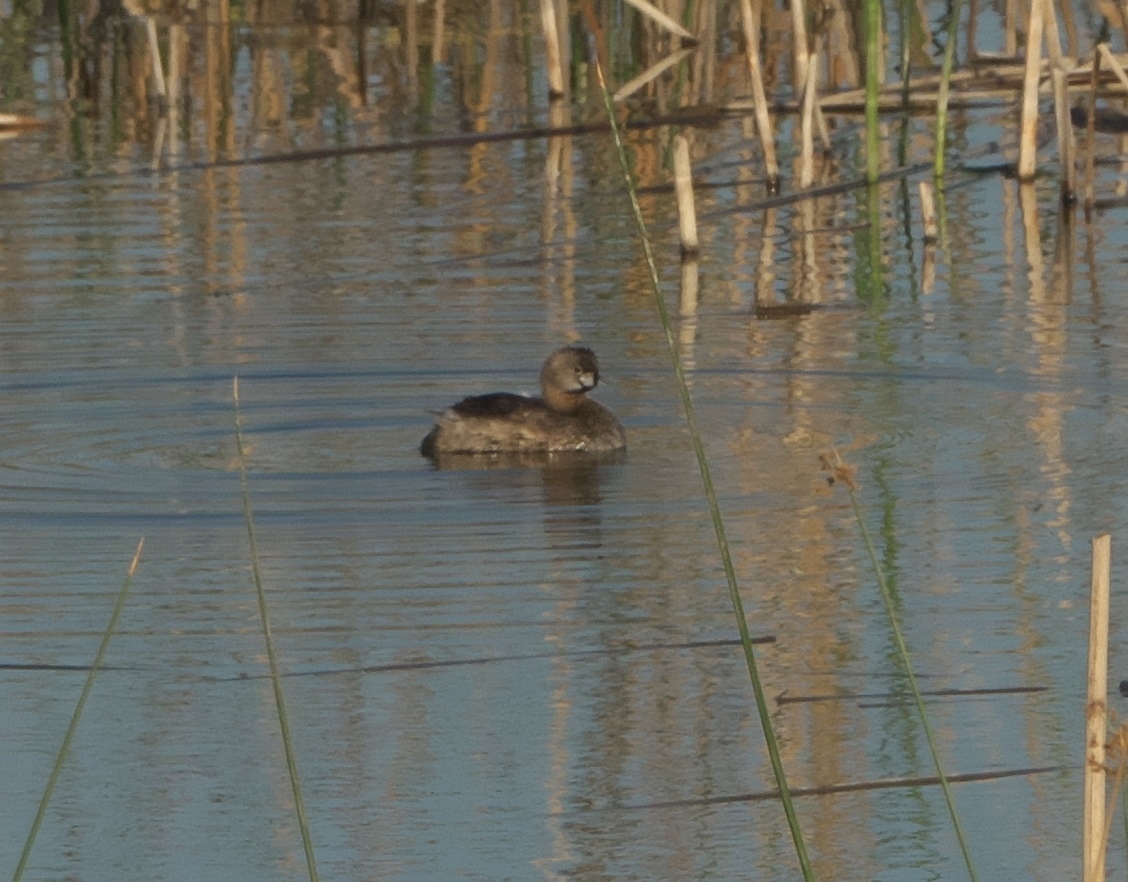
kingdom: Animalia
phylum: Chordata
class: Aves
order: Podicipediformes
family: Podicipedidae
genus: Podilymbus
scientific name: Podilymbus podiceps
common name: Pied-billed grebe
